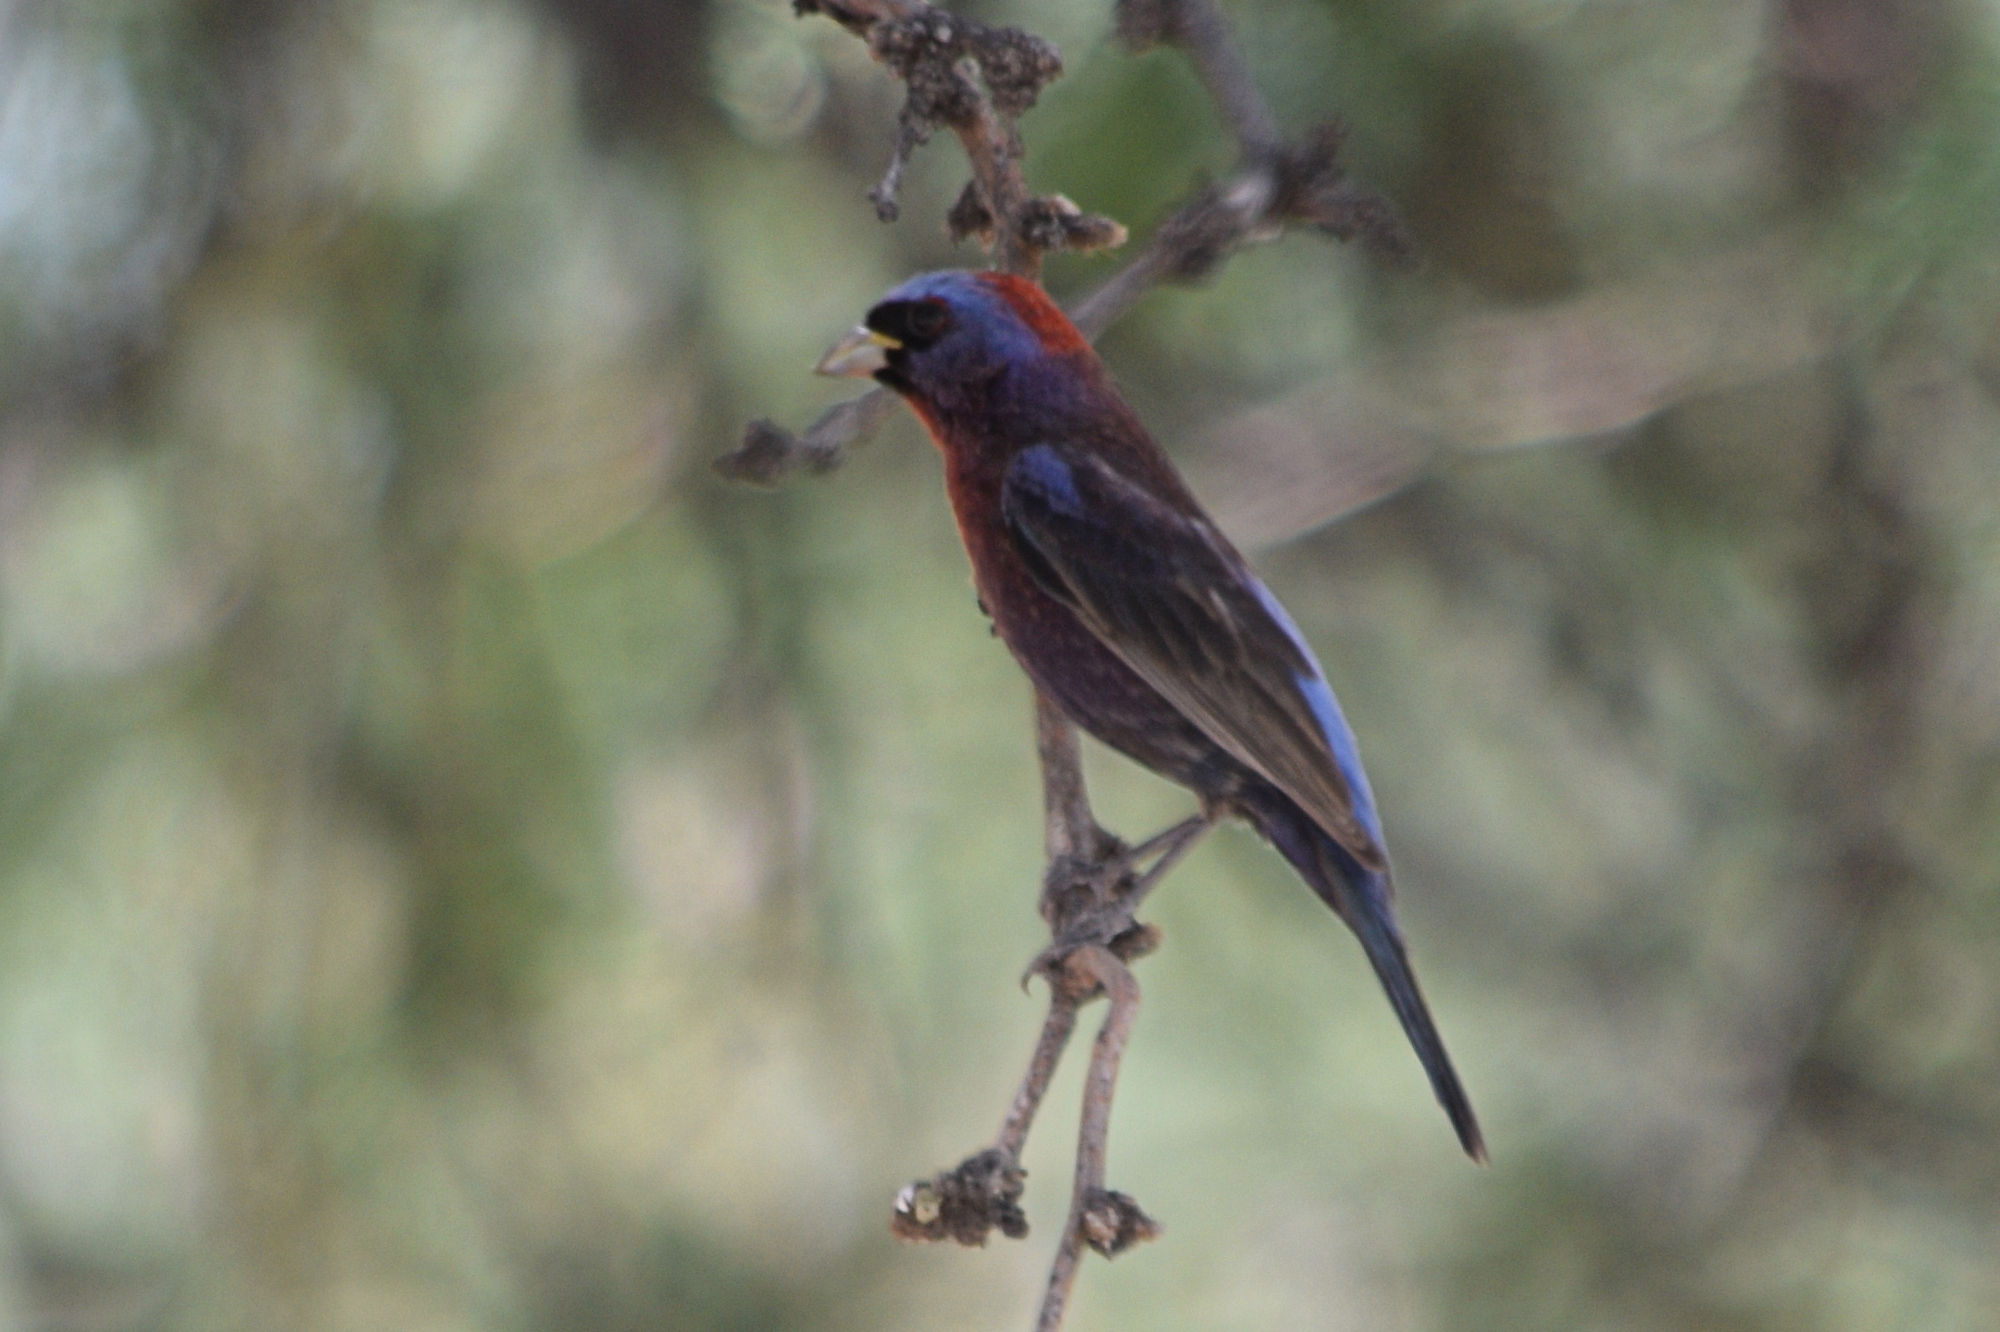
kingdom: Animalia
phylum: Chordata
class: Aves
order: Passeriformes
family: Cardinalidae
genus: Passerina
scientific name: Passerina versicolor
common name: Varied bunting
